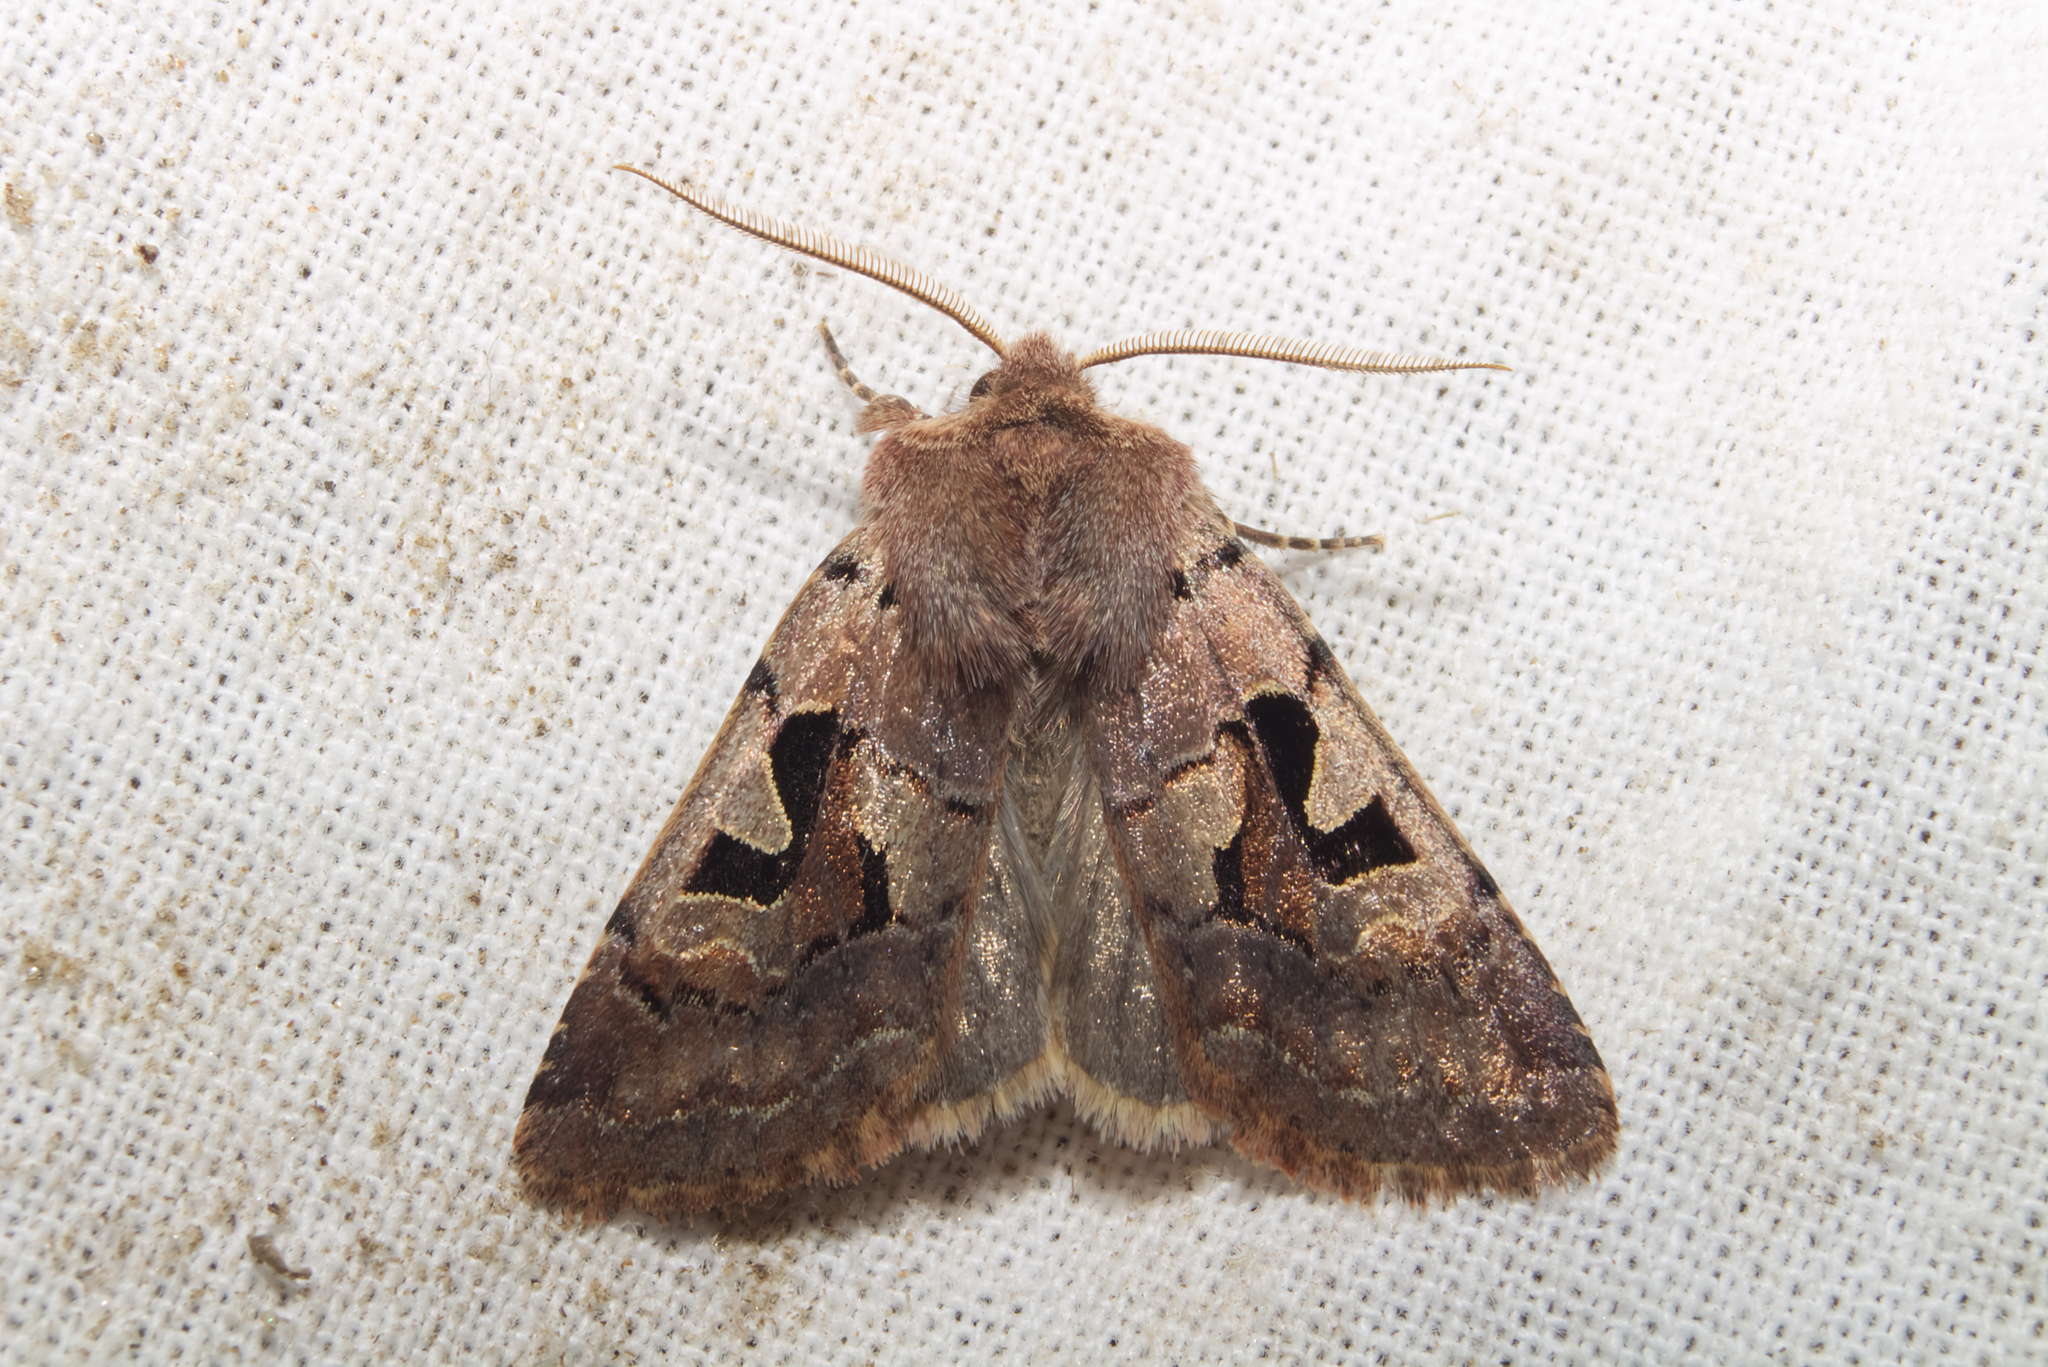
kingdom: Animalia
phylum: Arthropoda
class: Insecta
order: Lepidoptera
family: Noctuidae
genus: Orthosia
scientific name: Orthosia gothica
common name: Hebrew character
